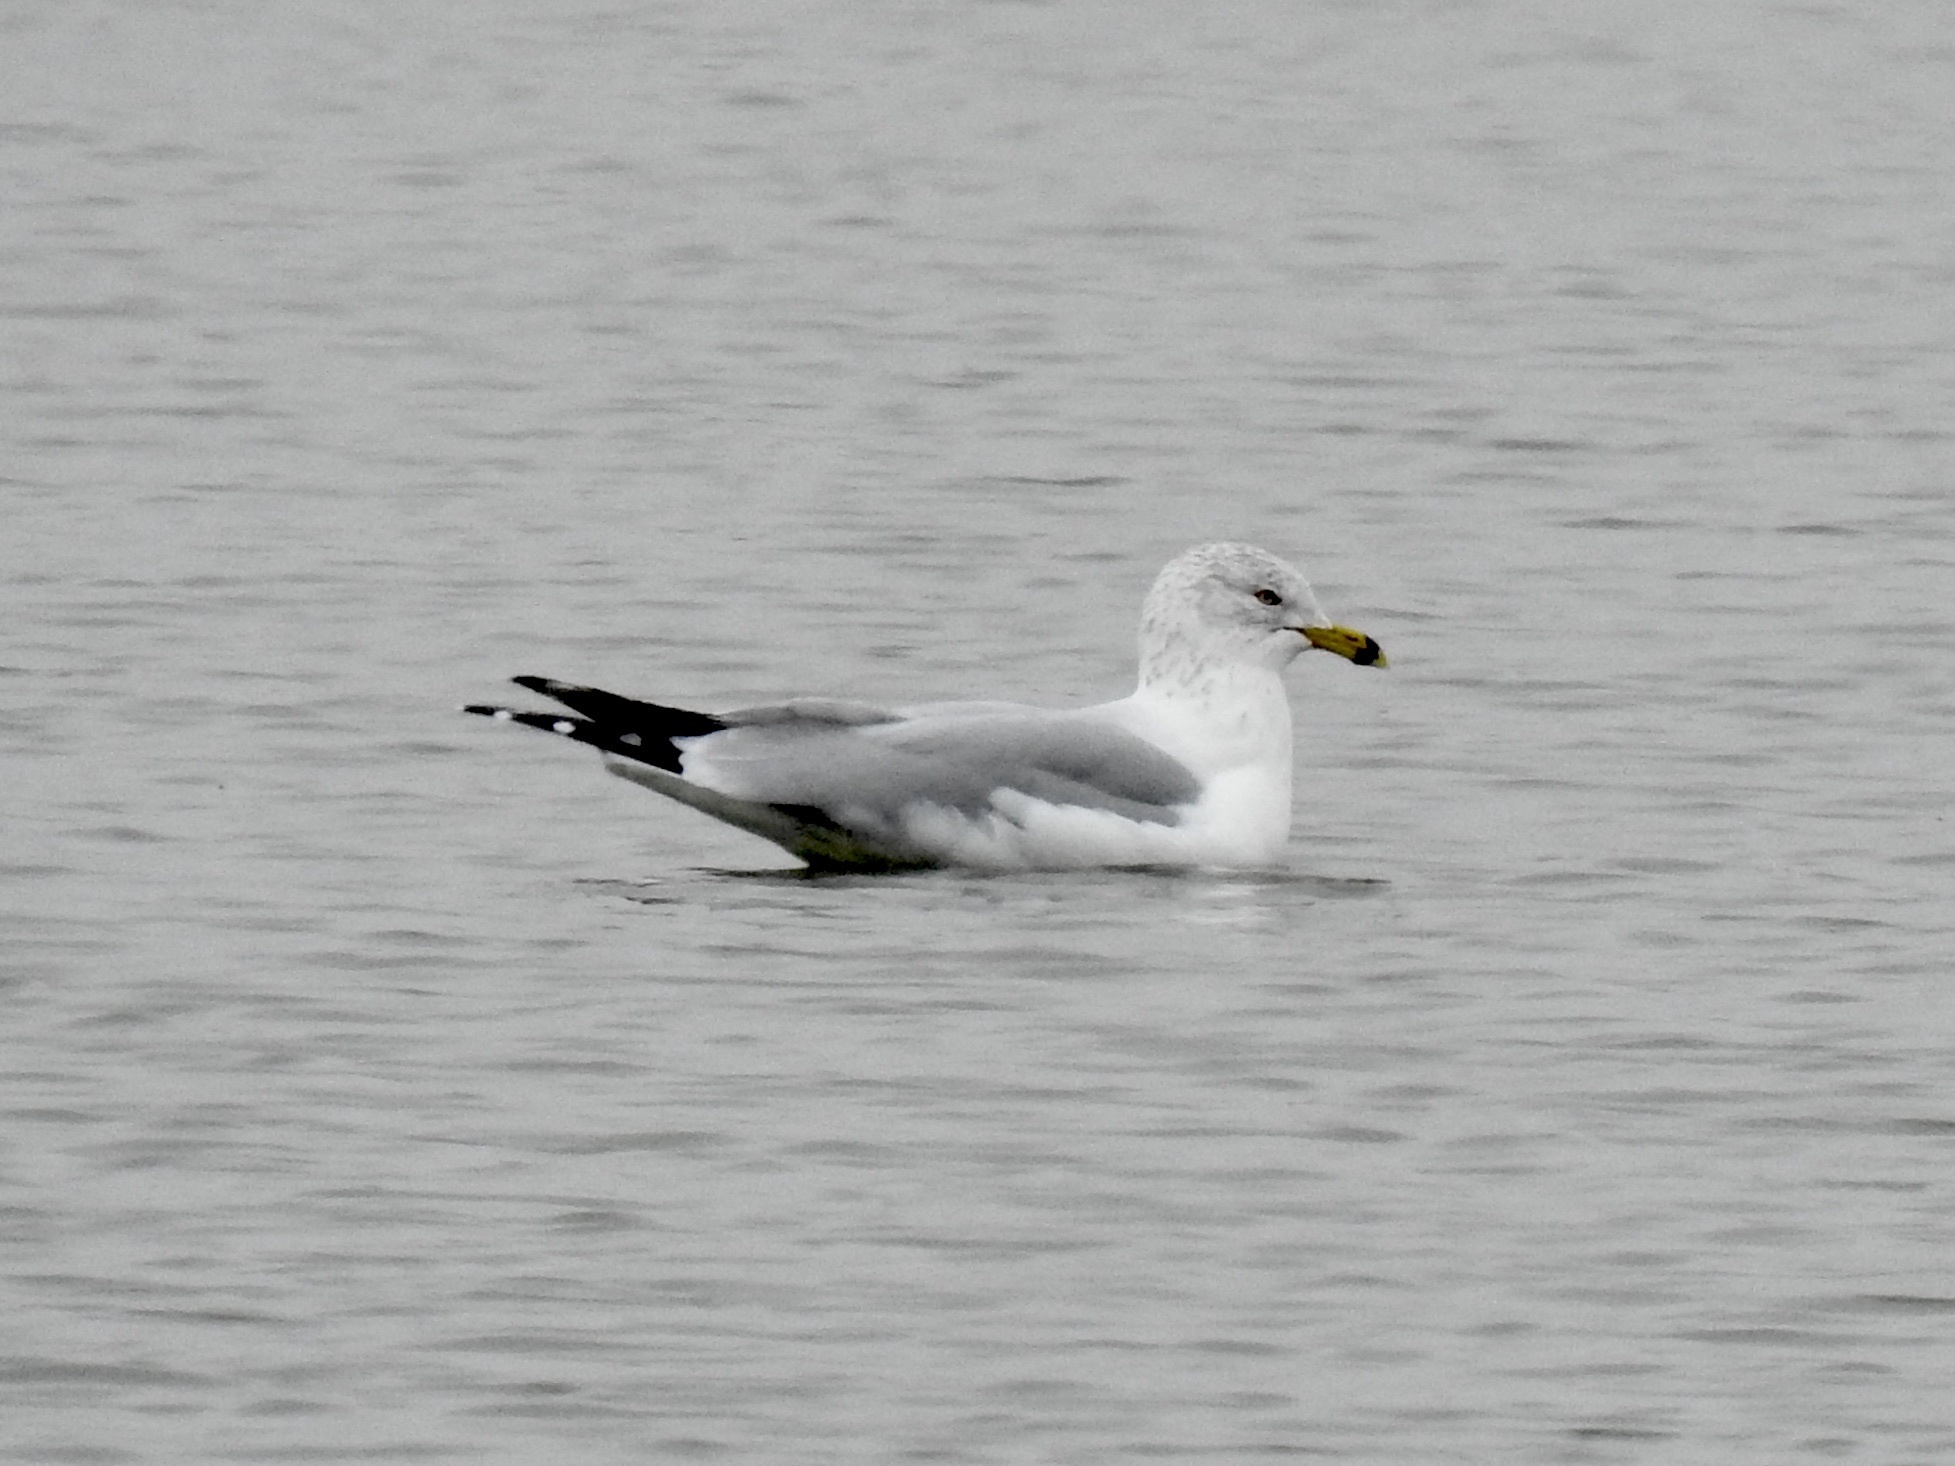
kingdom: Animalia
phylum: Chordata
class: Aves
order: Charadriiformes
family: Laridae
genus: Larus
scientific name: Larus delawarensis
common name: Ring-billed gull
